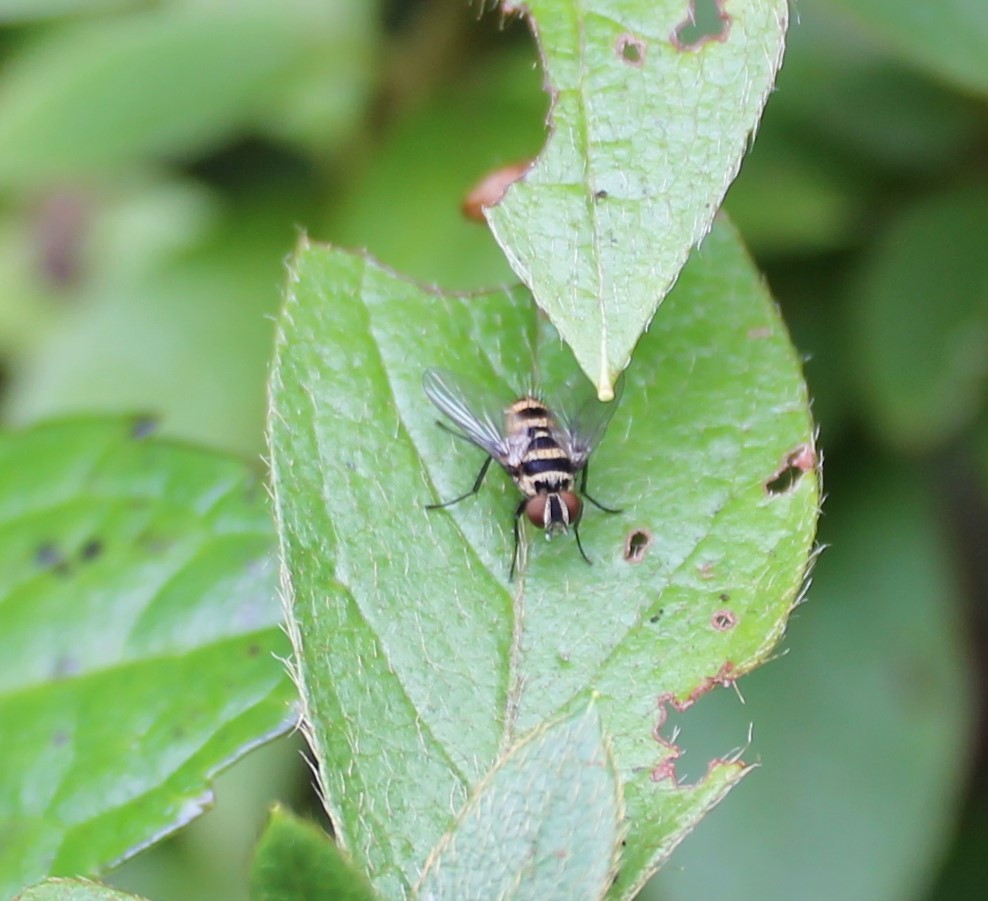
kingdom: Animalia
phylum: Arthropoda
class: Insecta
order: Diptera
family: Tachinidae
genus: Trigonospila
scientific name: Trigonospila brevifacies
